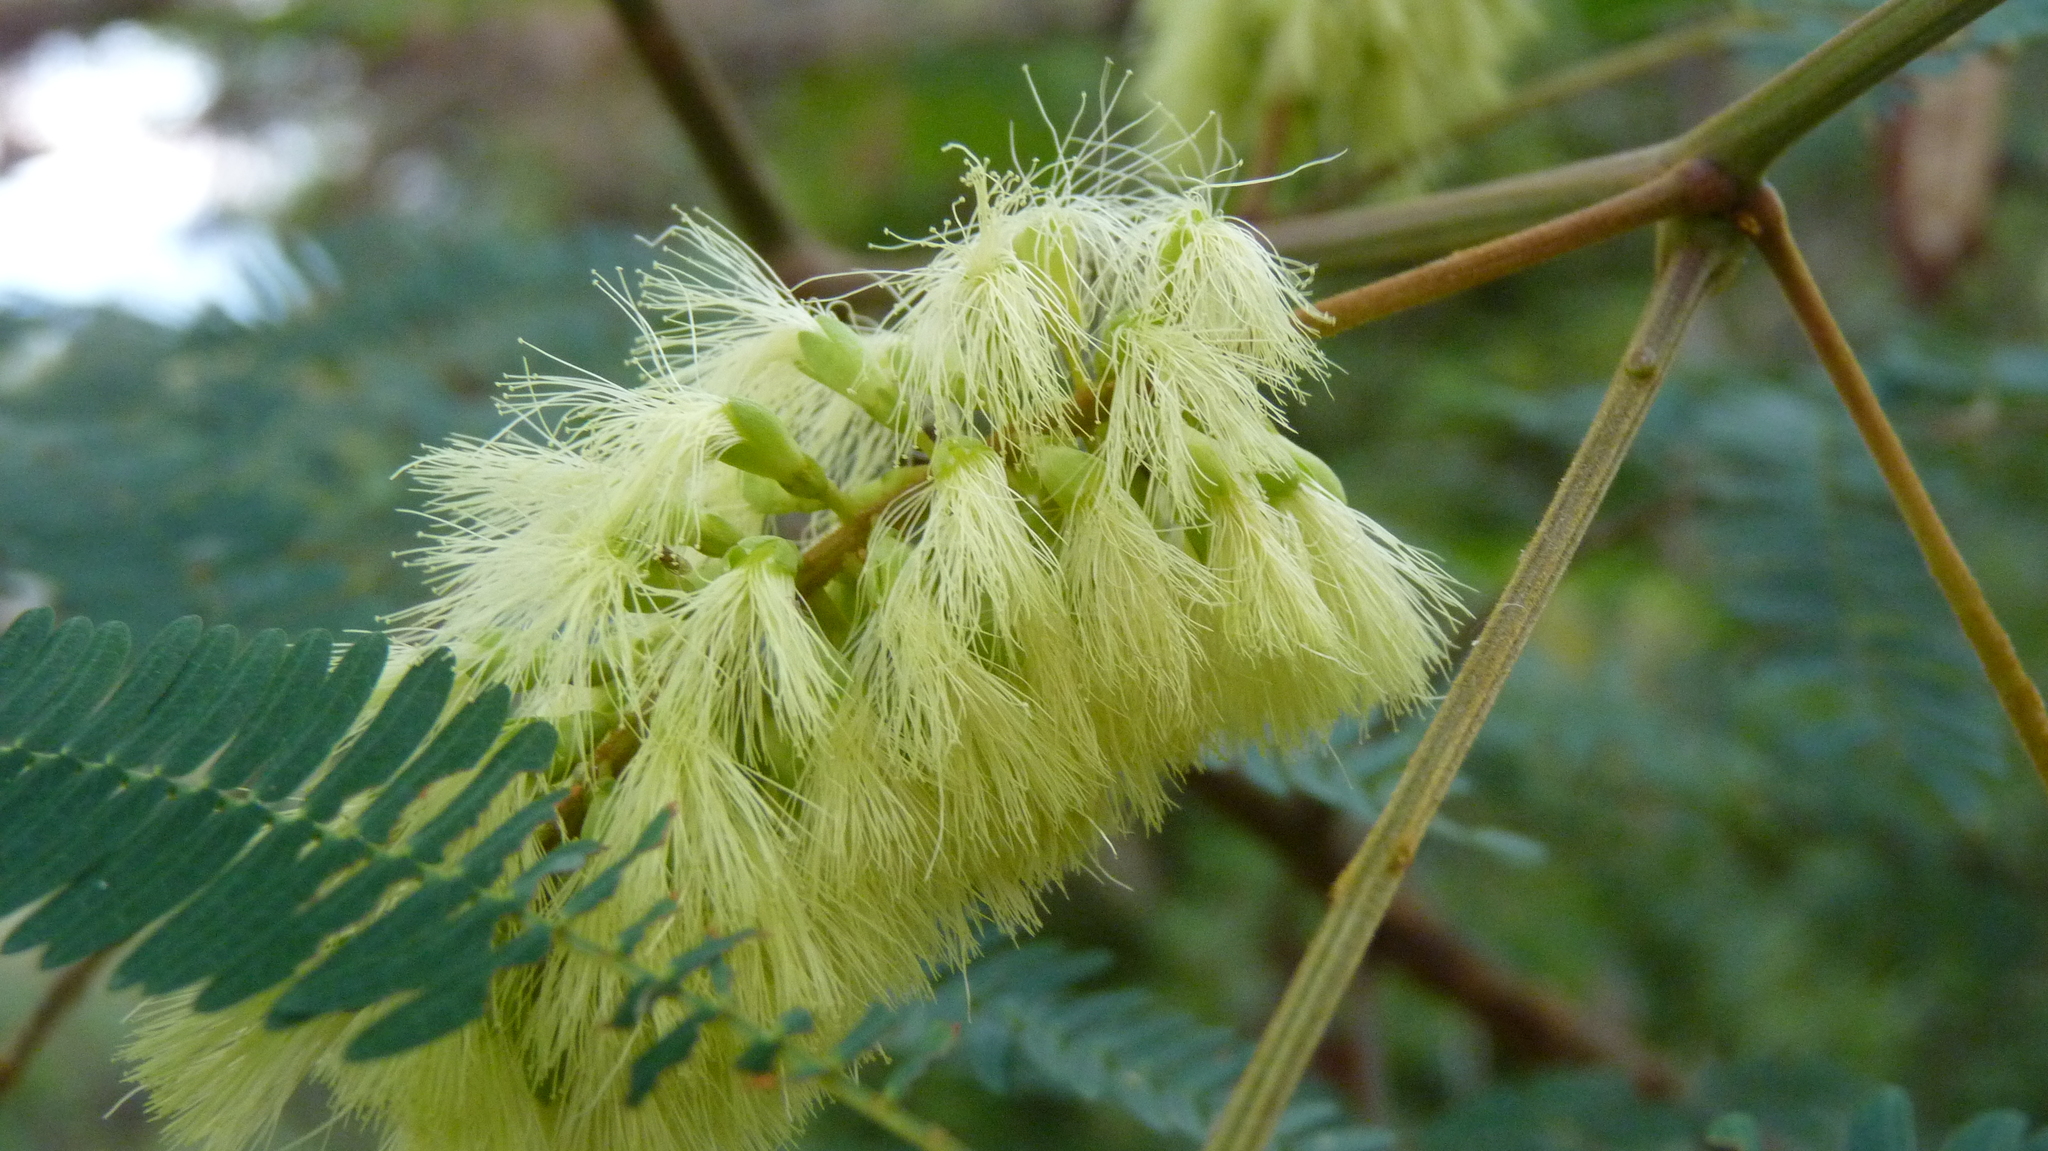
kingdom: Plantae
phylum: Tracheophyta
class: Magnoliopsida
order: Fabales
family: Fabaceae
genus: Paraserianthes
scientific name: Paraserianthes lophantha
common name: Plume albizia
